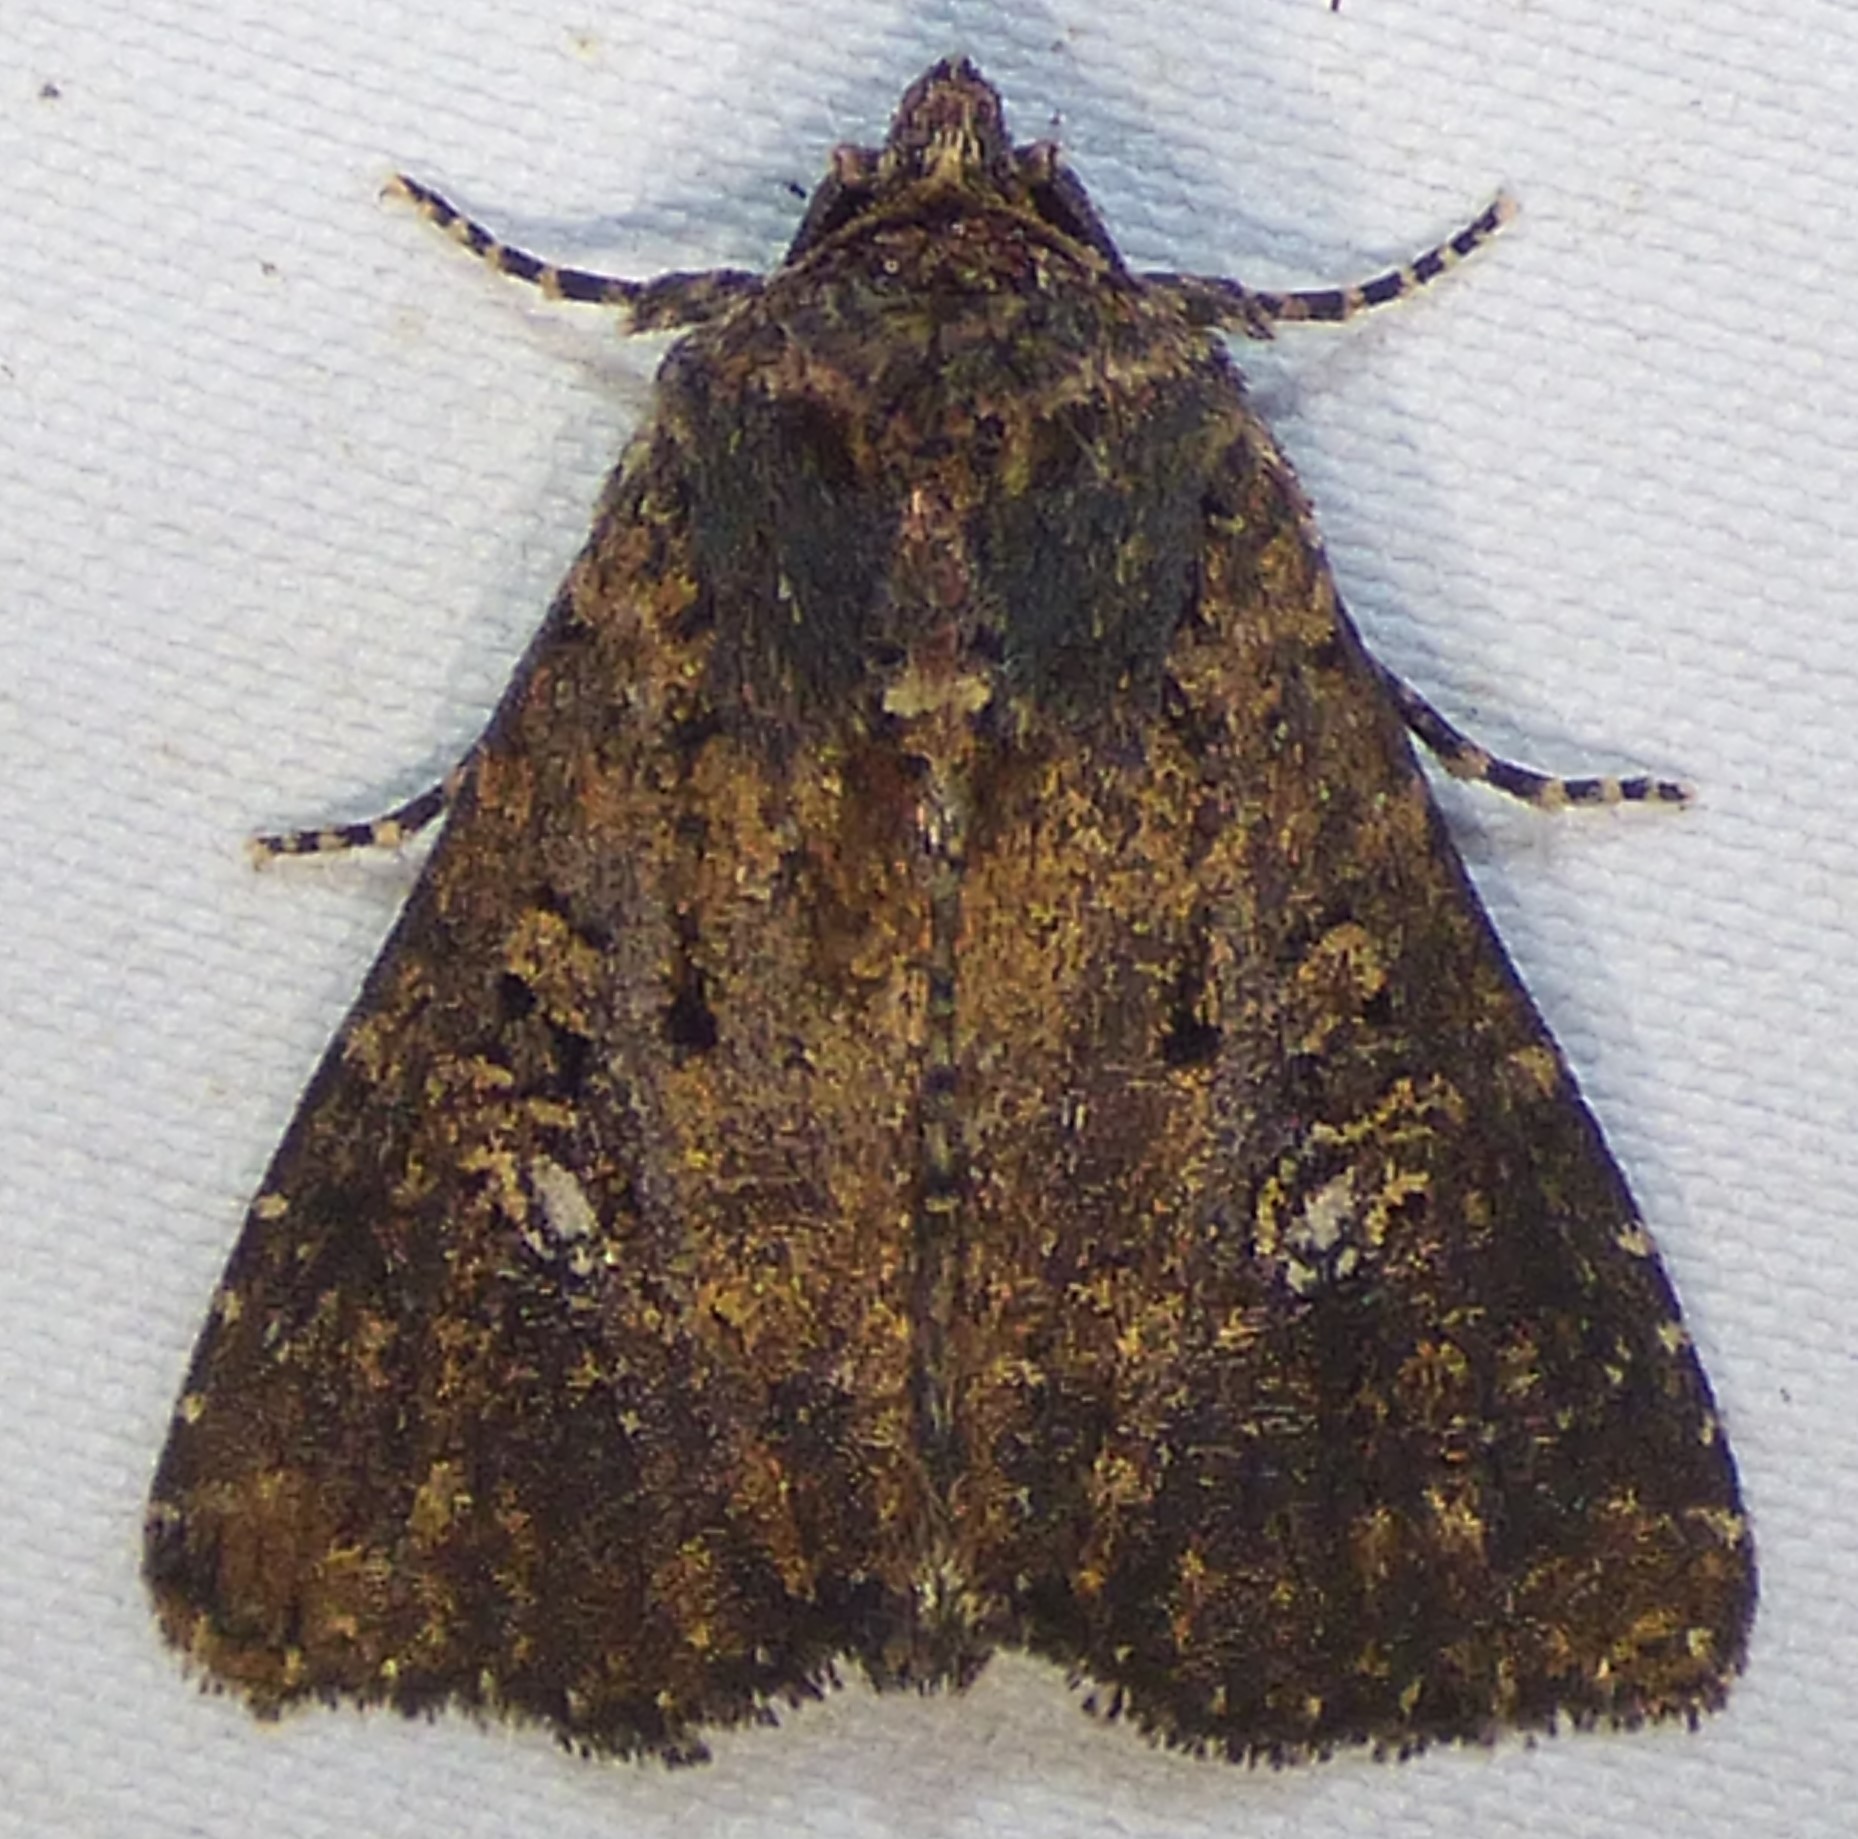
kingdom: Animalia
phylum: Arthropoda
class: Insecta
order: Lepidoptera
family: Noctuidae
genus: Condica
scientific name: Condica vecors
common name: Dusky groundling
